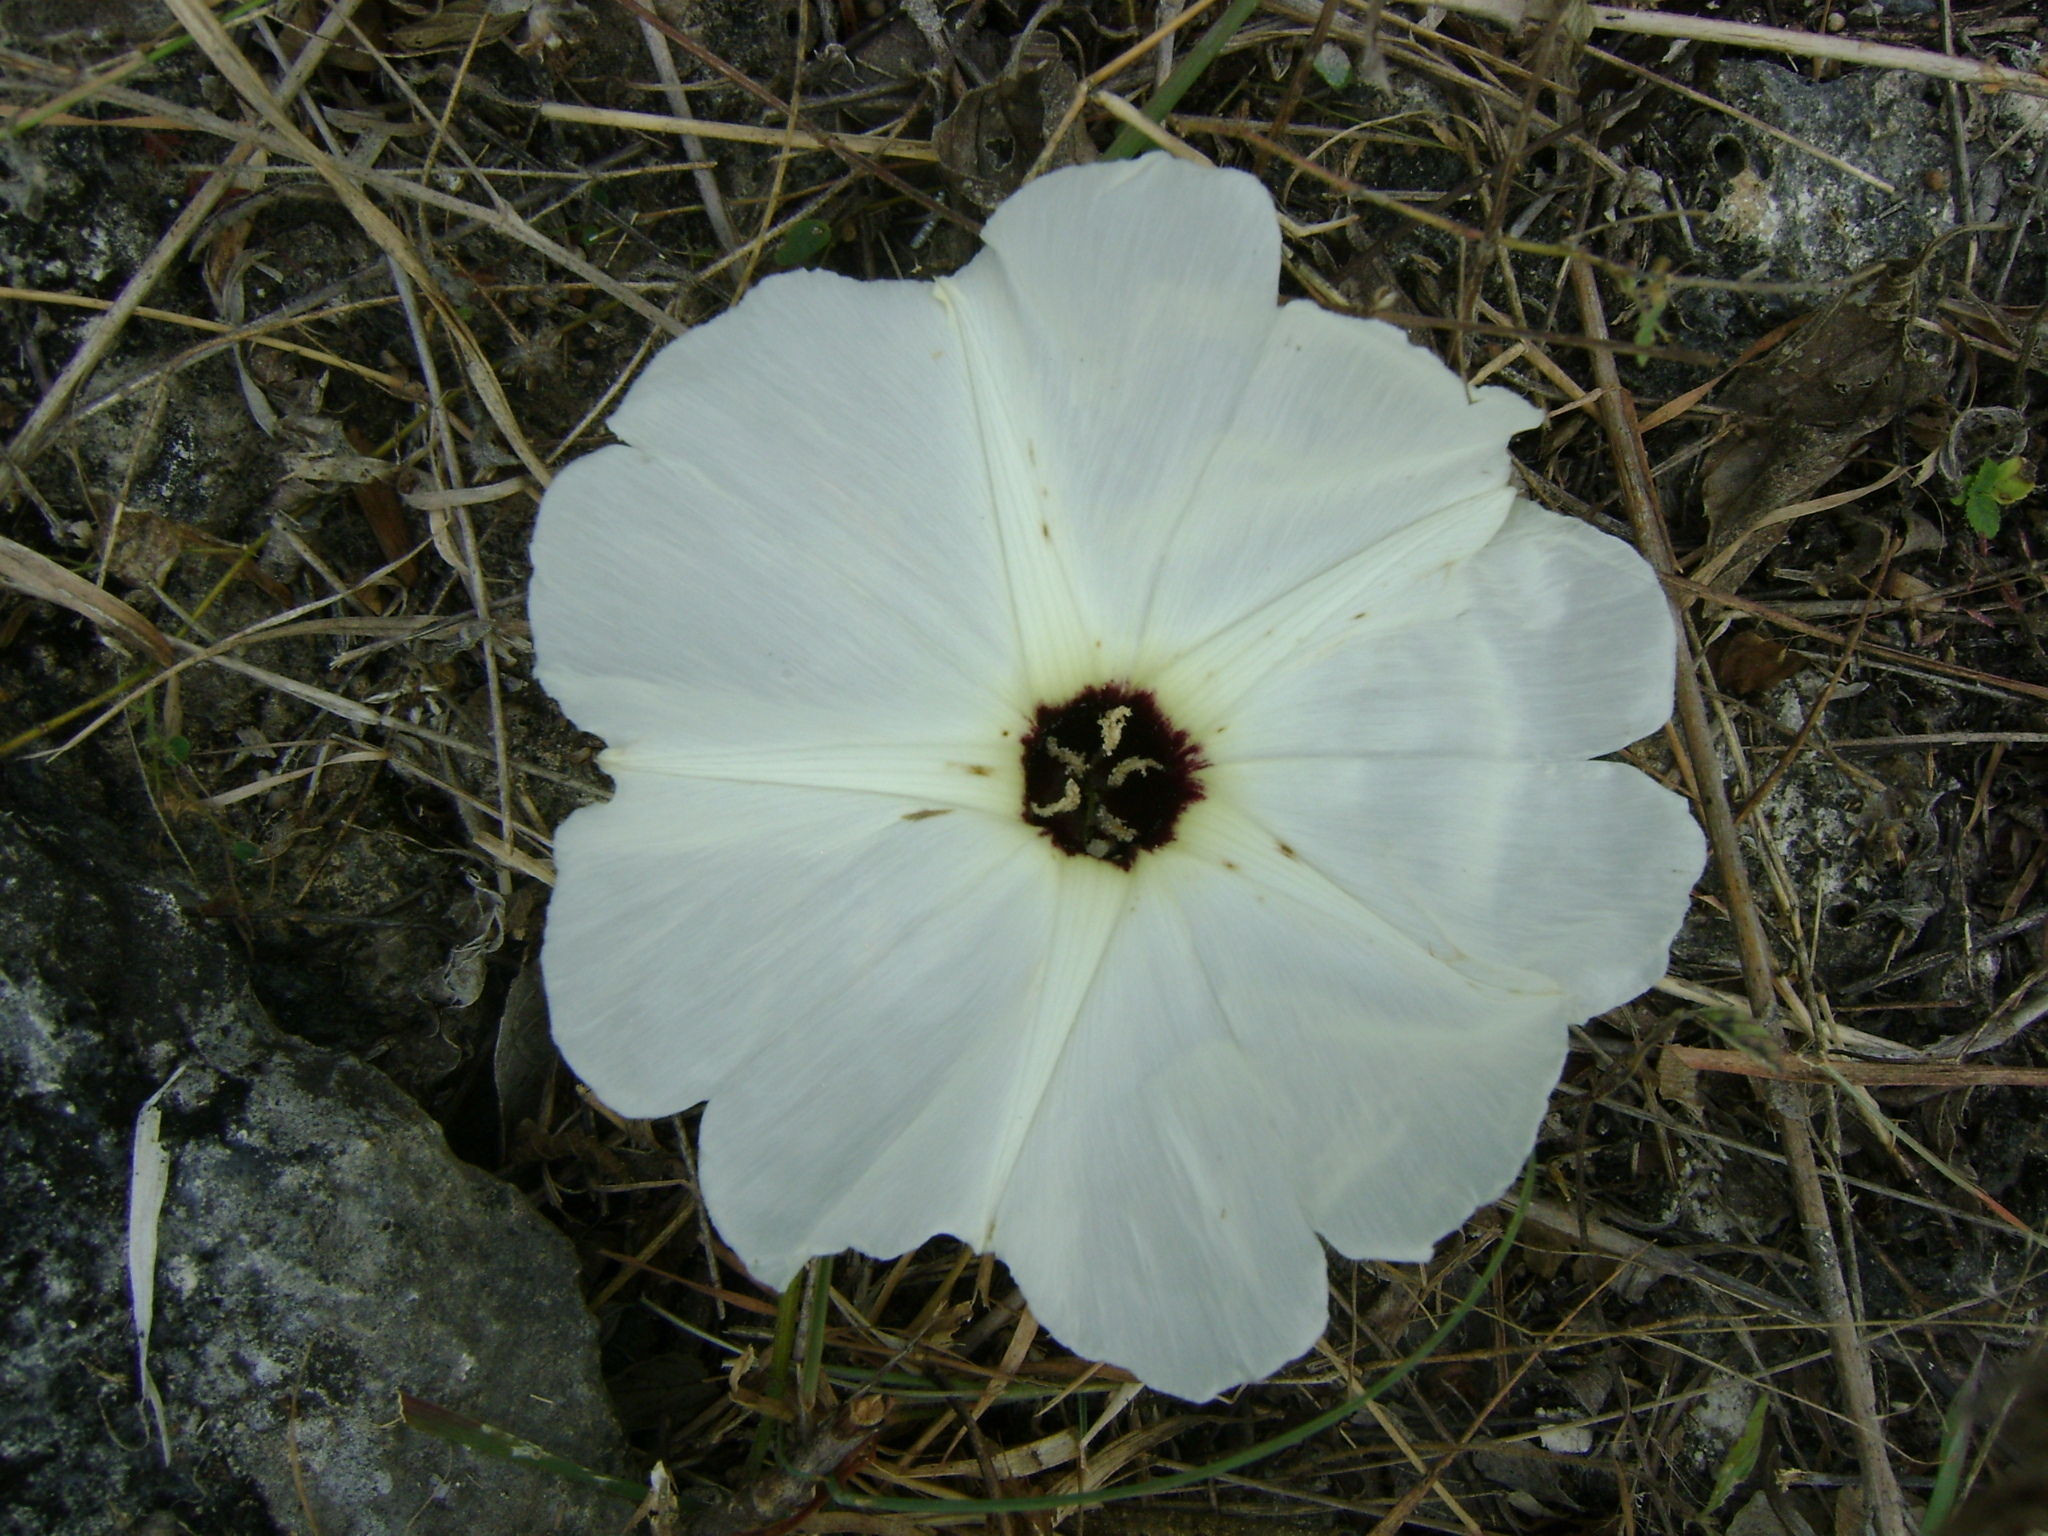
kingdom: Plantae
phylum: Tracheophyta
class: Magnoliopsida
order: Solanales
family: Convolvulaceae
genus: Ipomoea
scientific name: Ipomoea wolcottiana
